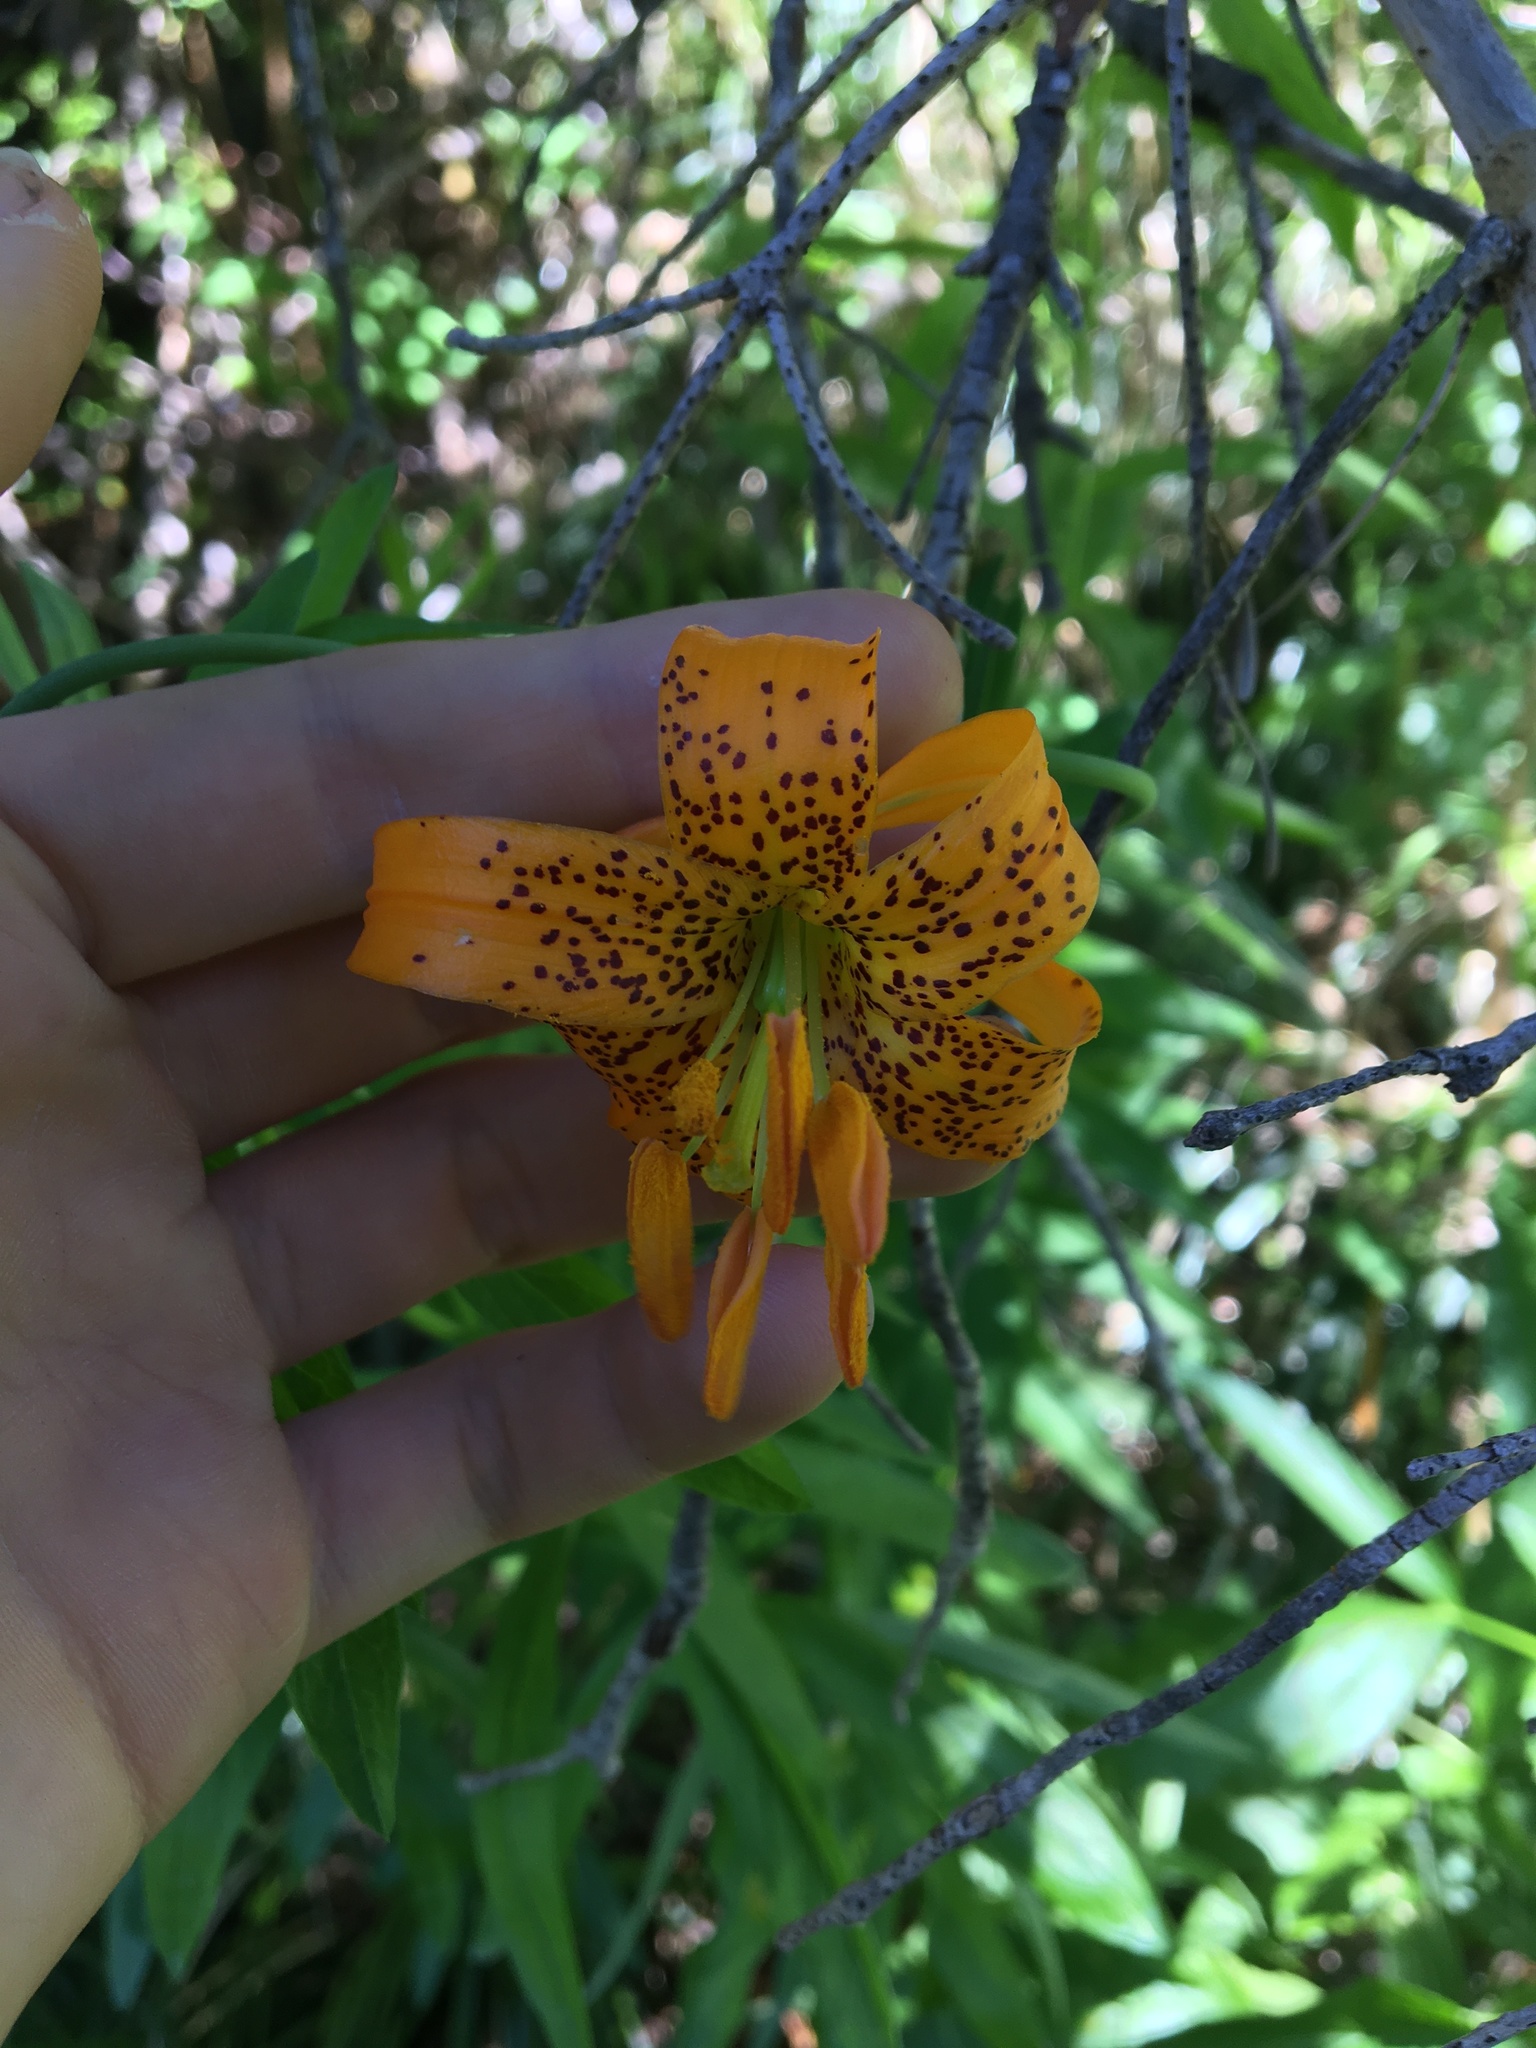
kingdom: Plantae
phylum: Tracheophyta
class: Liliopsida
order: Liliales
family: Liliaceae
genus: Lilium
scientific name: Lilium columbianum
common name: Columbia lily
